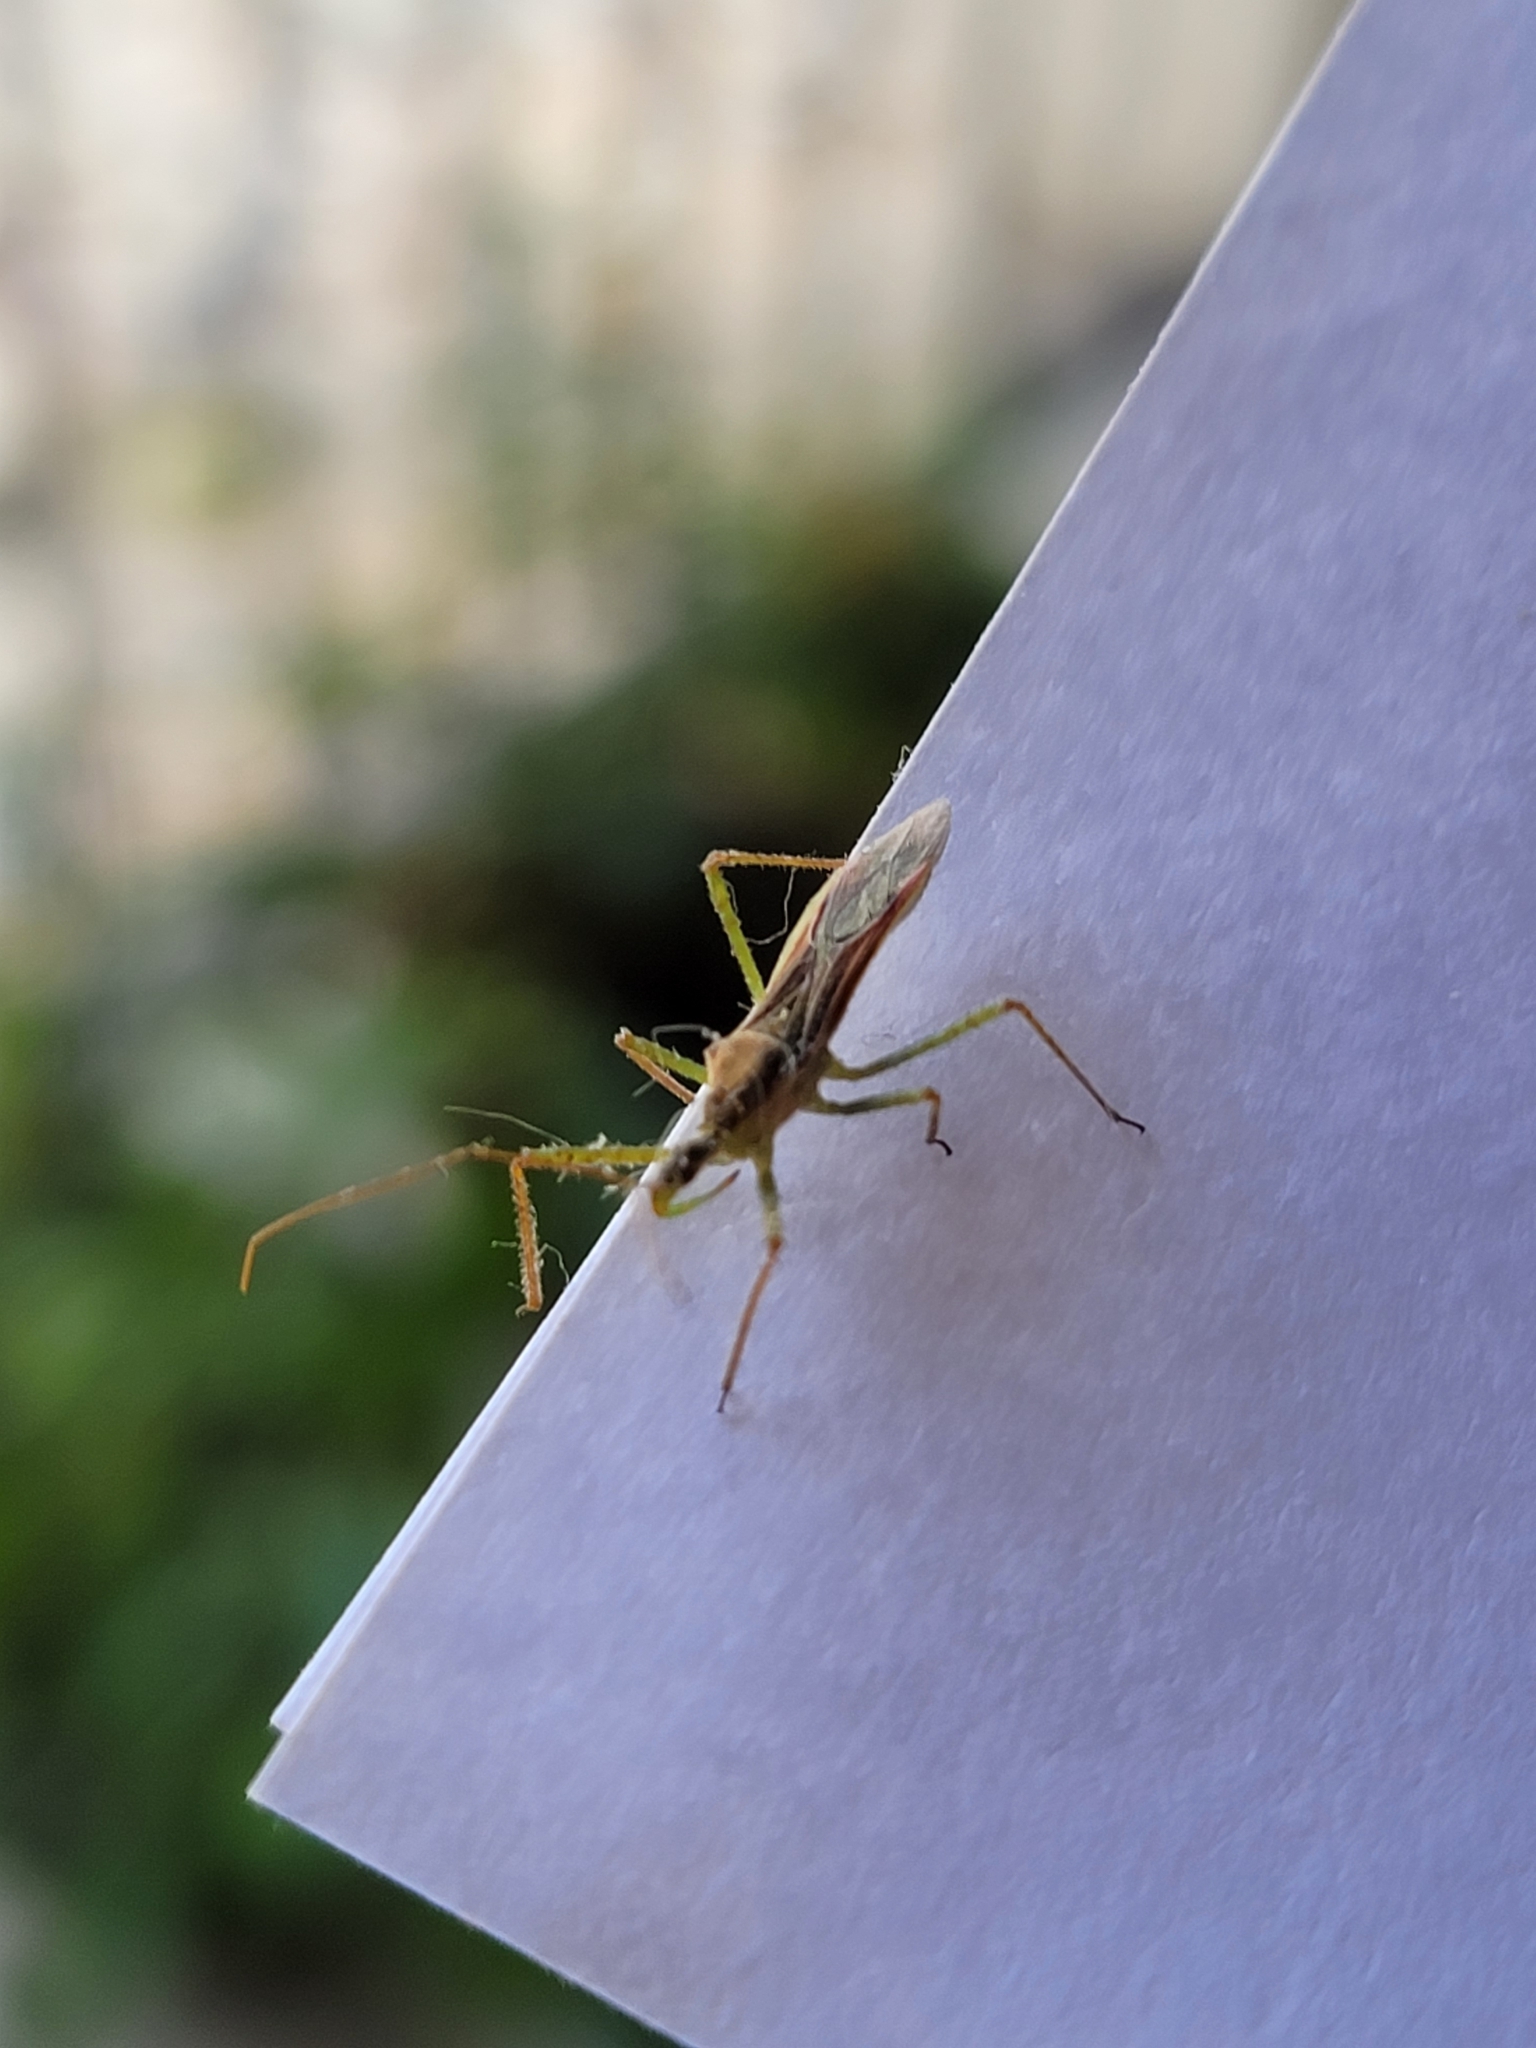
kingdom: Animalia
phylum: Arthropoda
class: Insecta
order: Hemiptera
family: Reduviidae
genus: Zelus
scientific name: Zelus renardii
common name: Assassin bug
